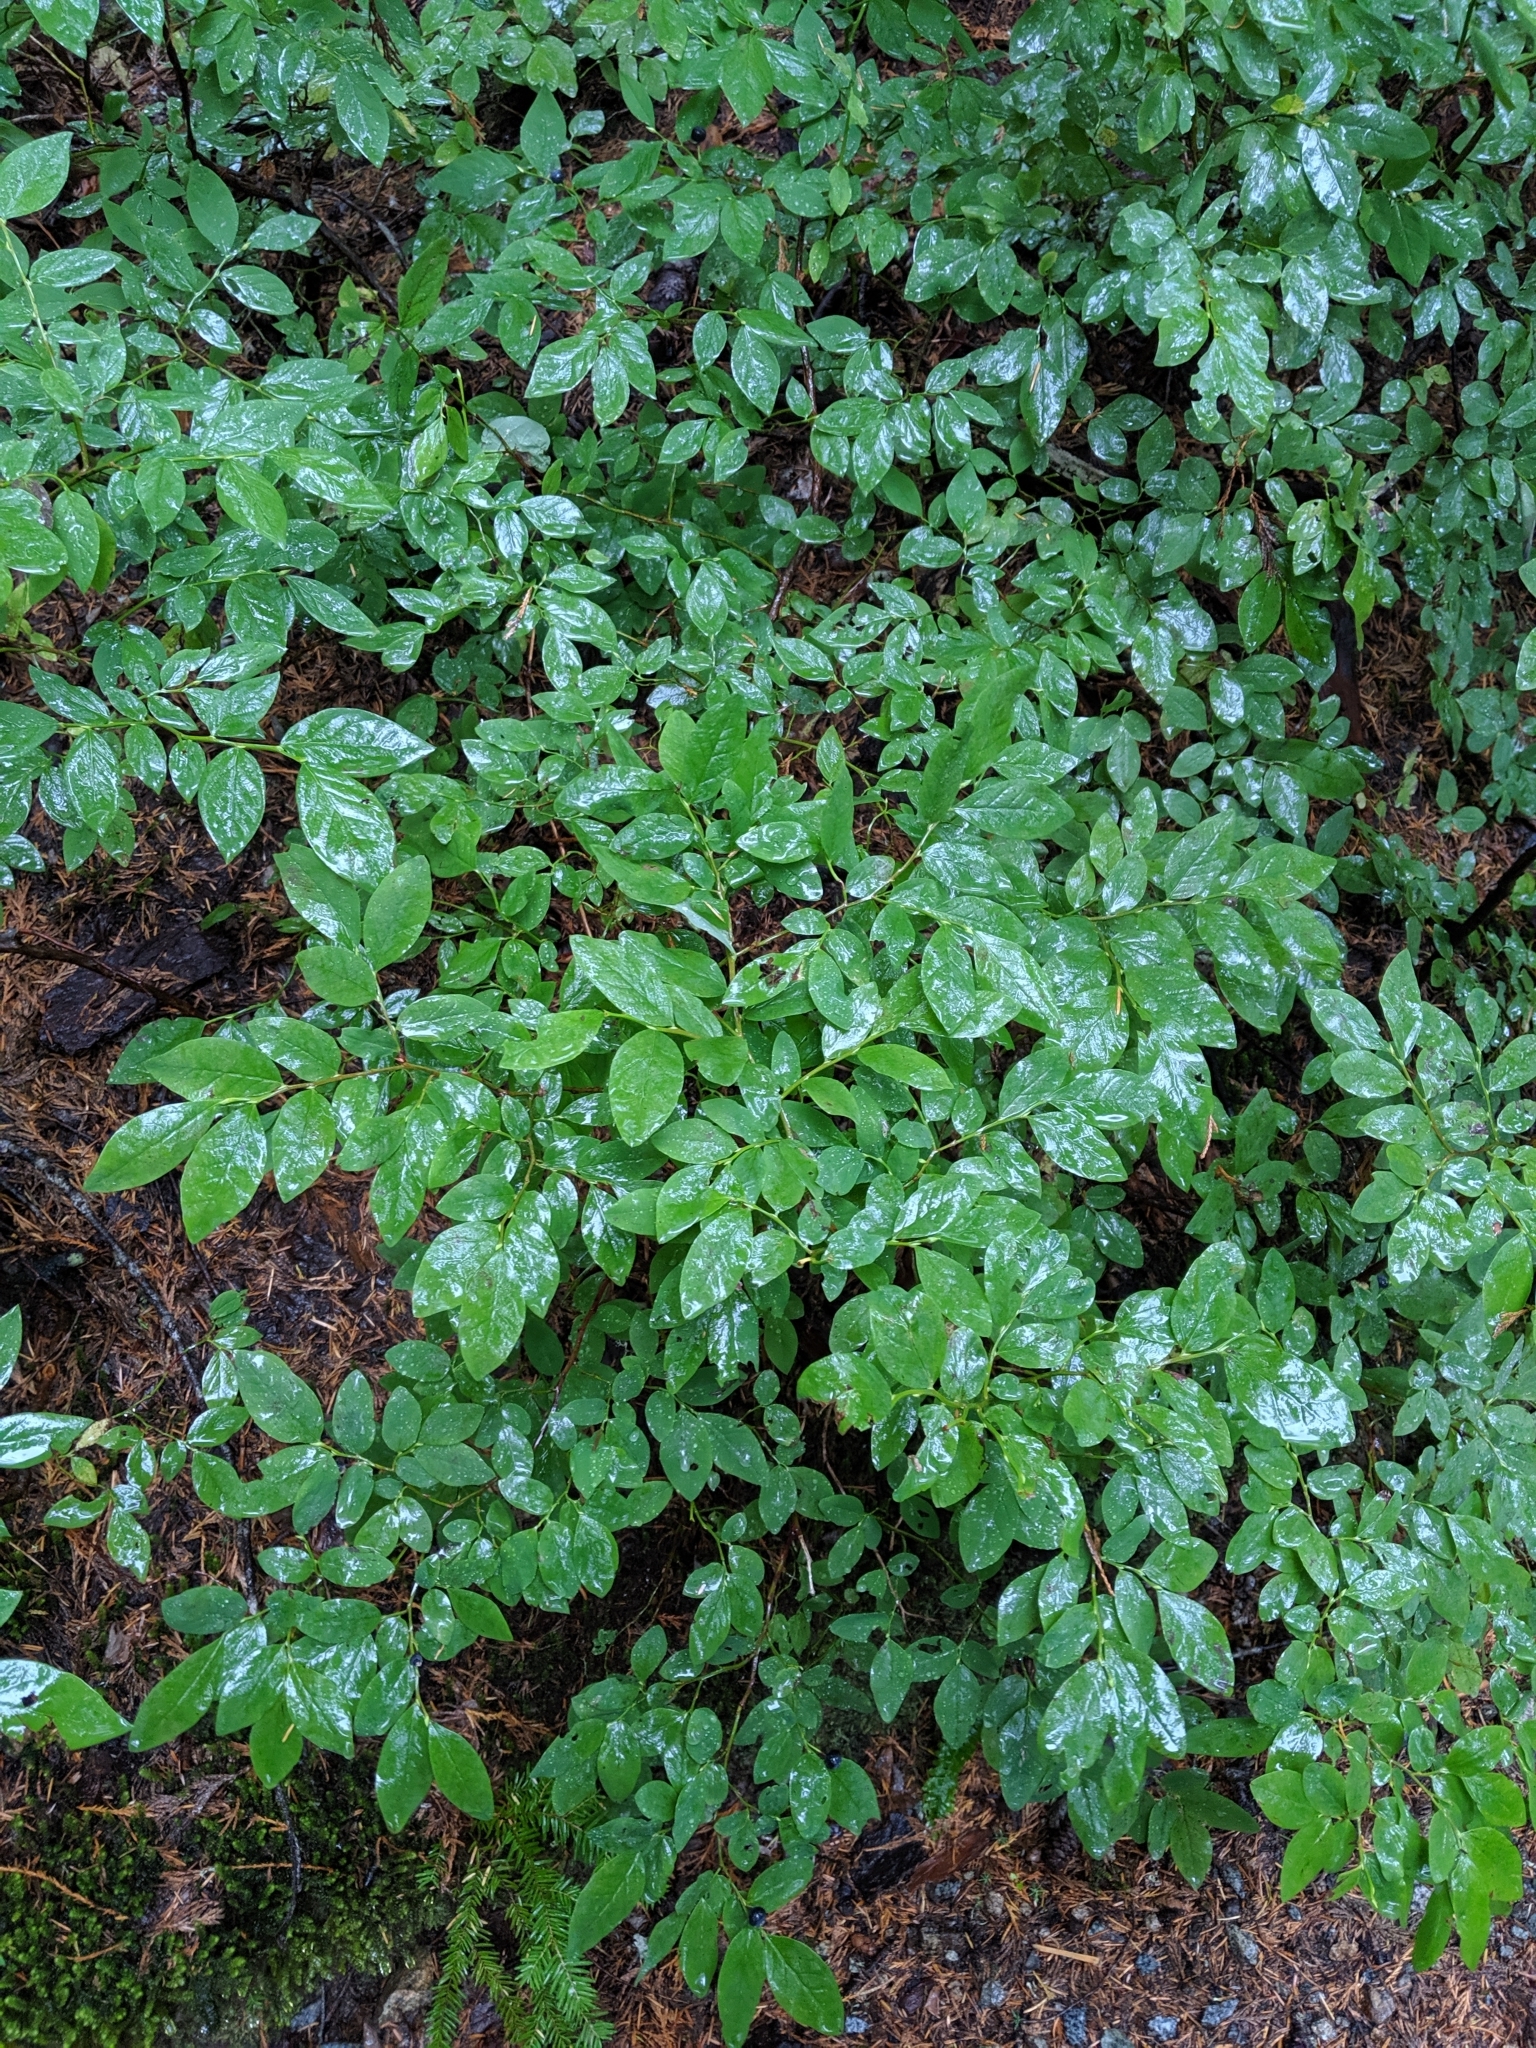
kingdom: Plantae
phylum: Tracheophyta
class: Magnoliopsida
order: Ericales
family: Ericaceae
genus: Vaccinium
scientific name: Vaccinium ovalifolium
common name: Early blueberry
